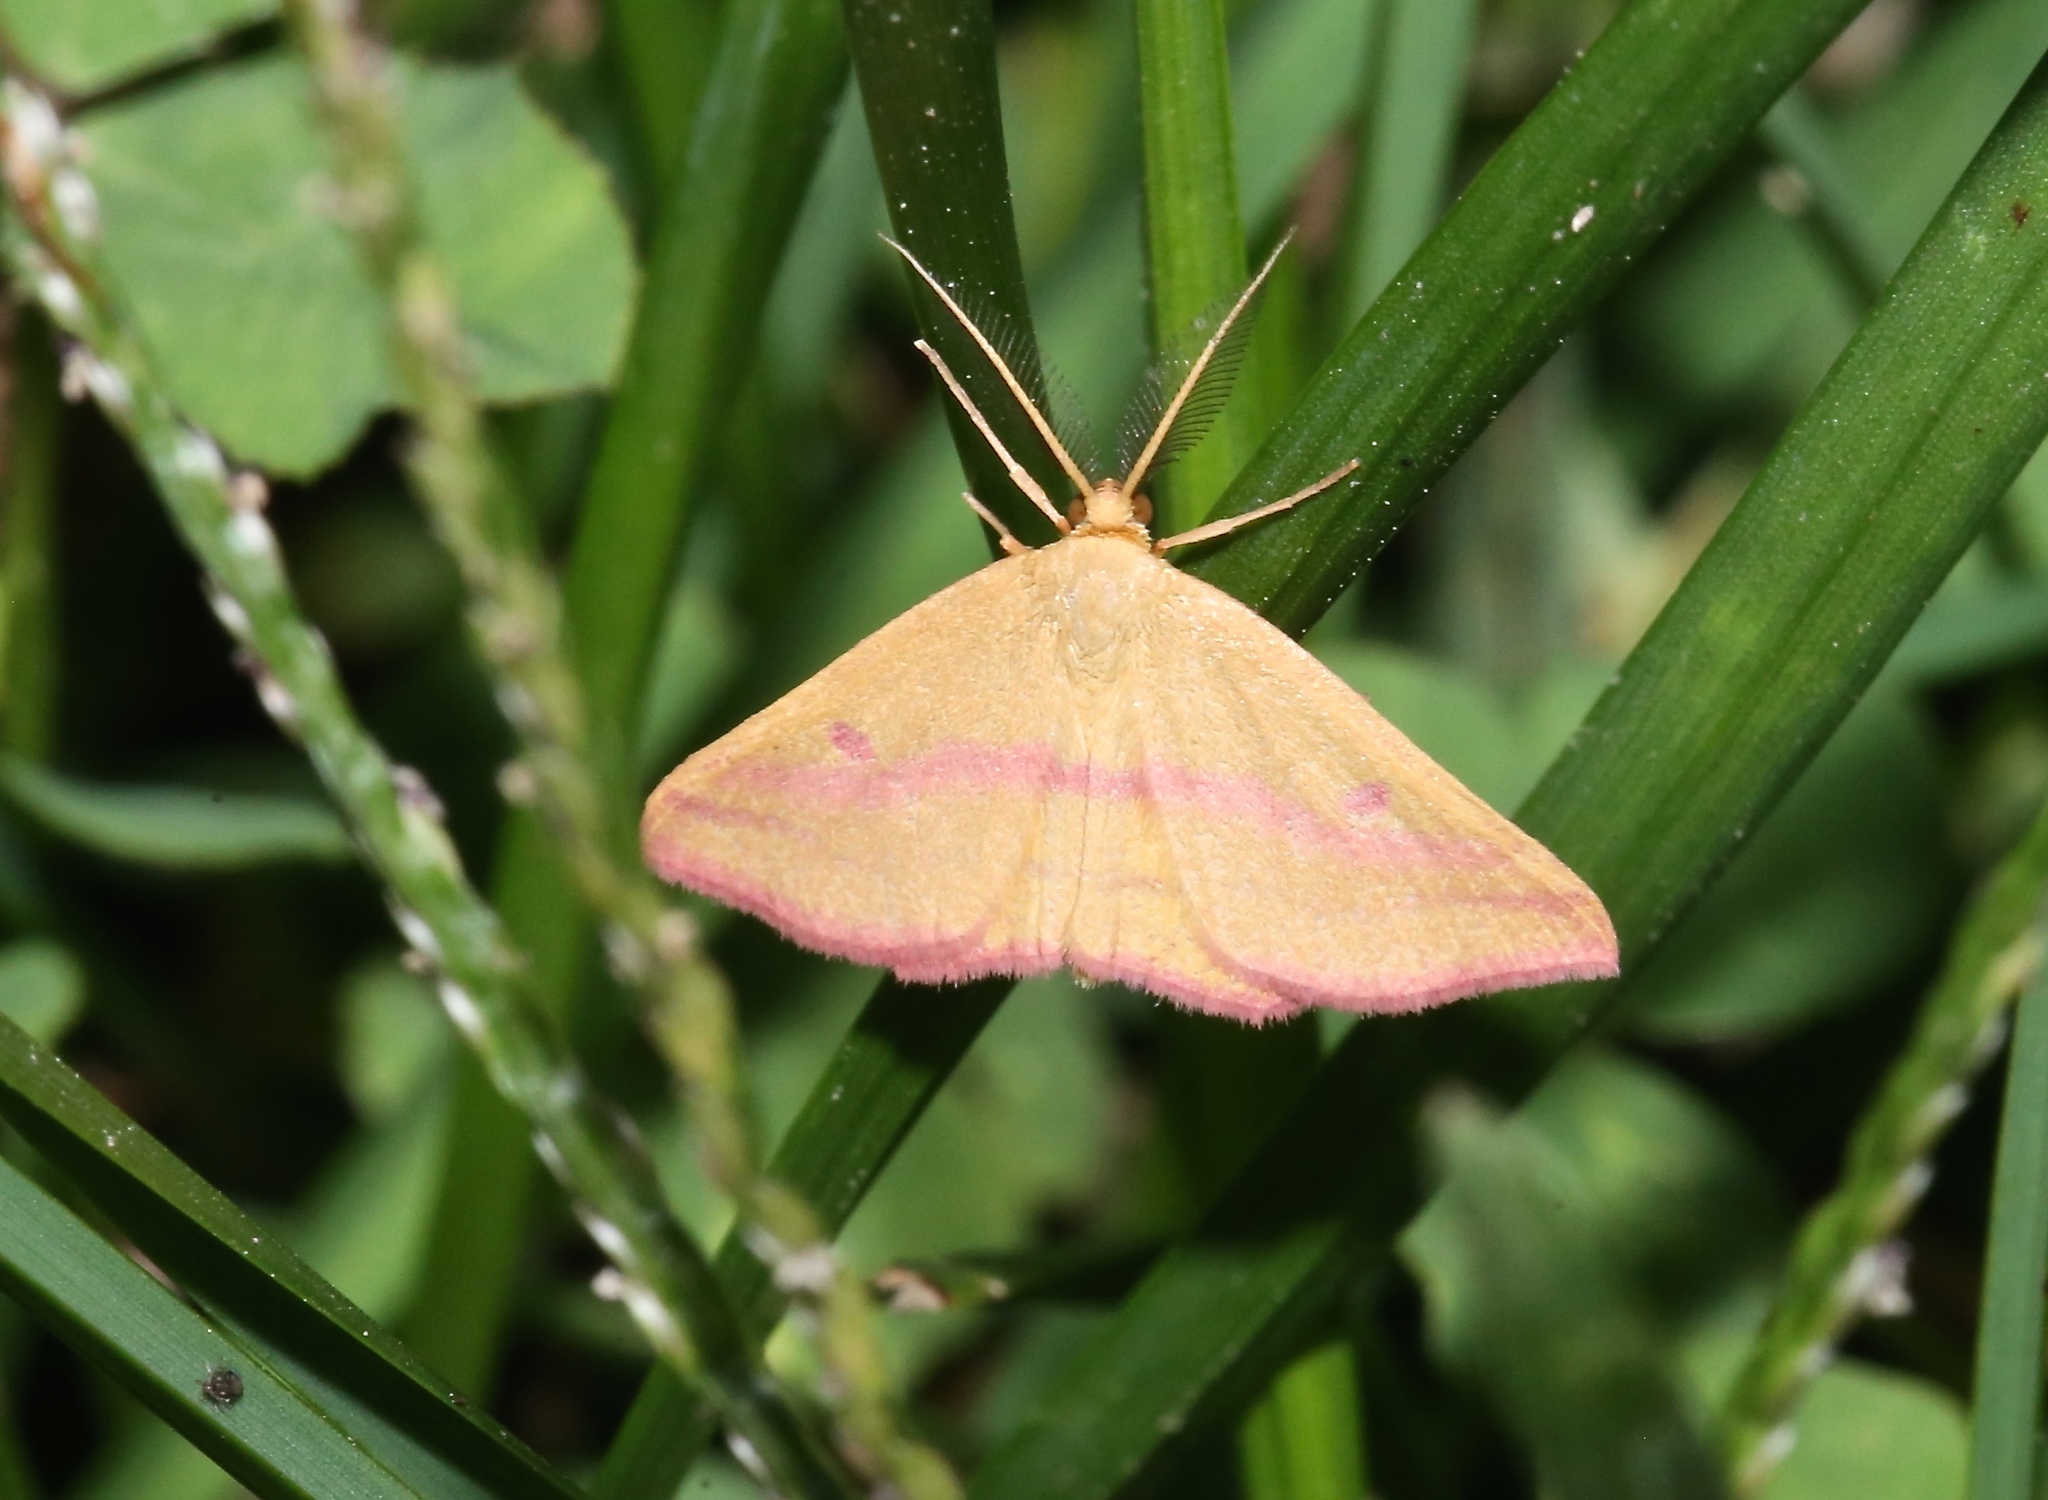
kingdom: Animalia
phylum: Arthropoda
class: Insecta
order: Lepidoptera
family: Geometridae
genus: Haematopis
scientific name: Haematopis grataria
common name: Chickweed geometer
